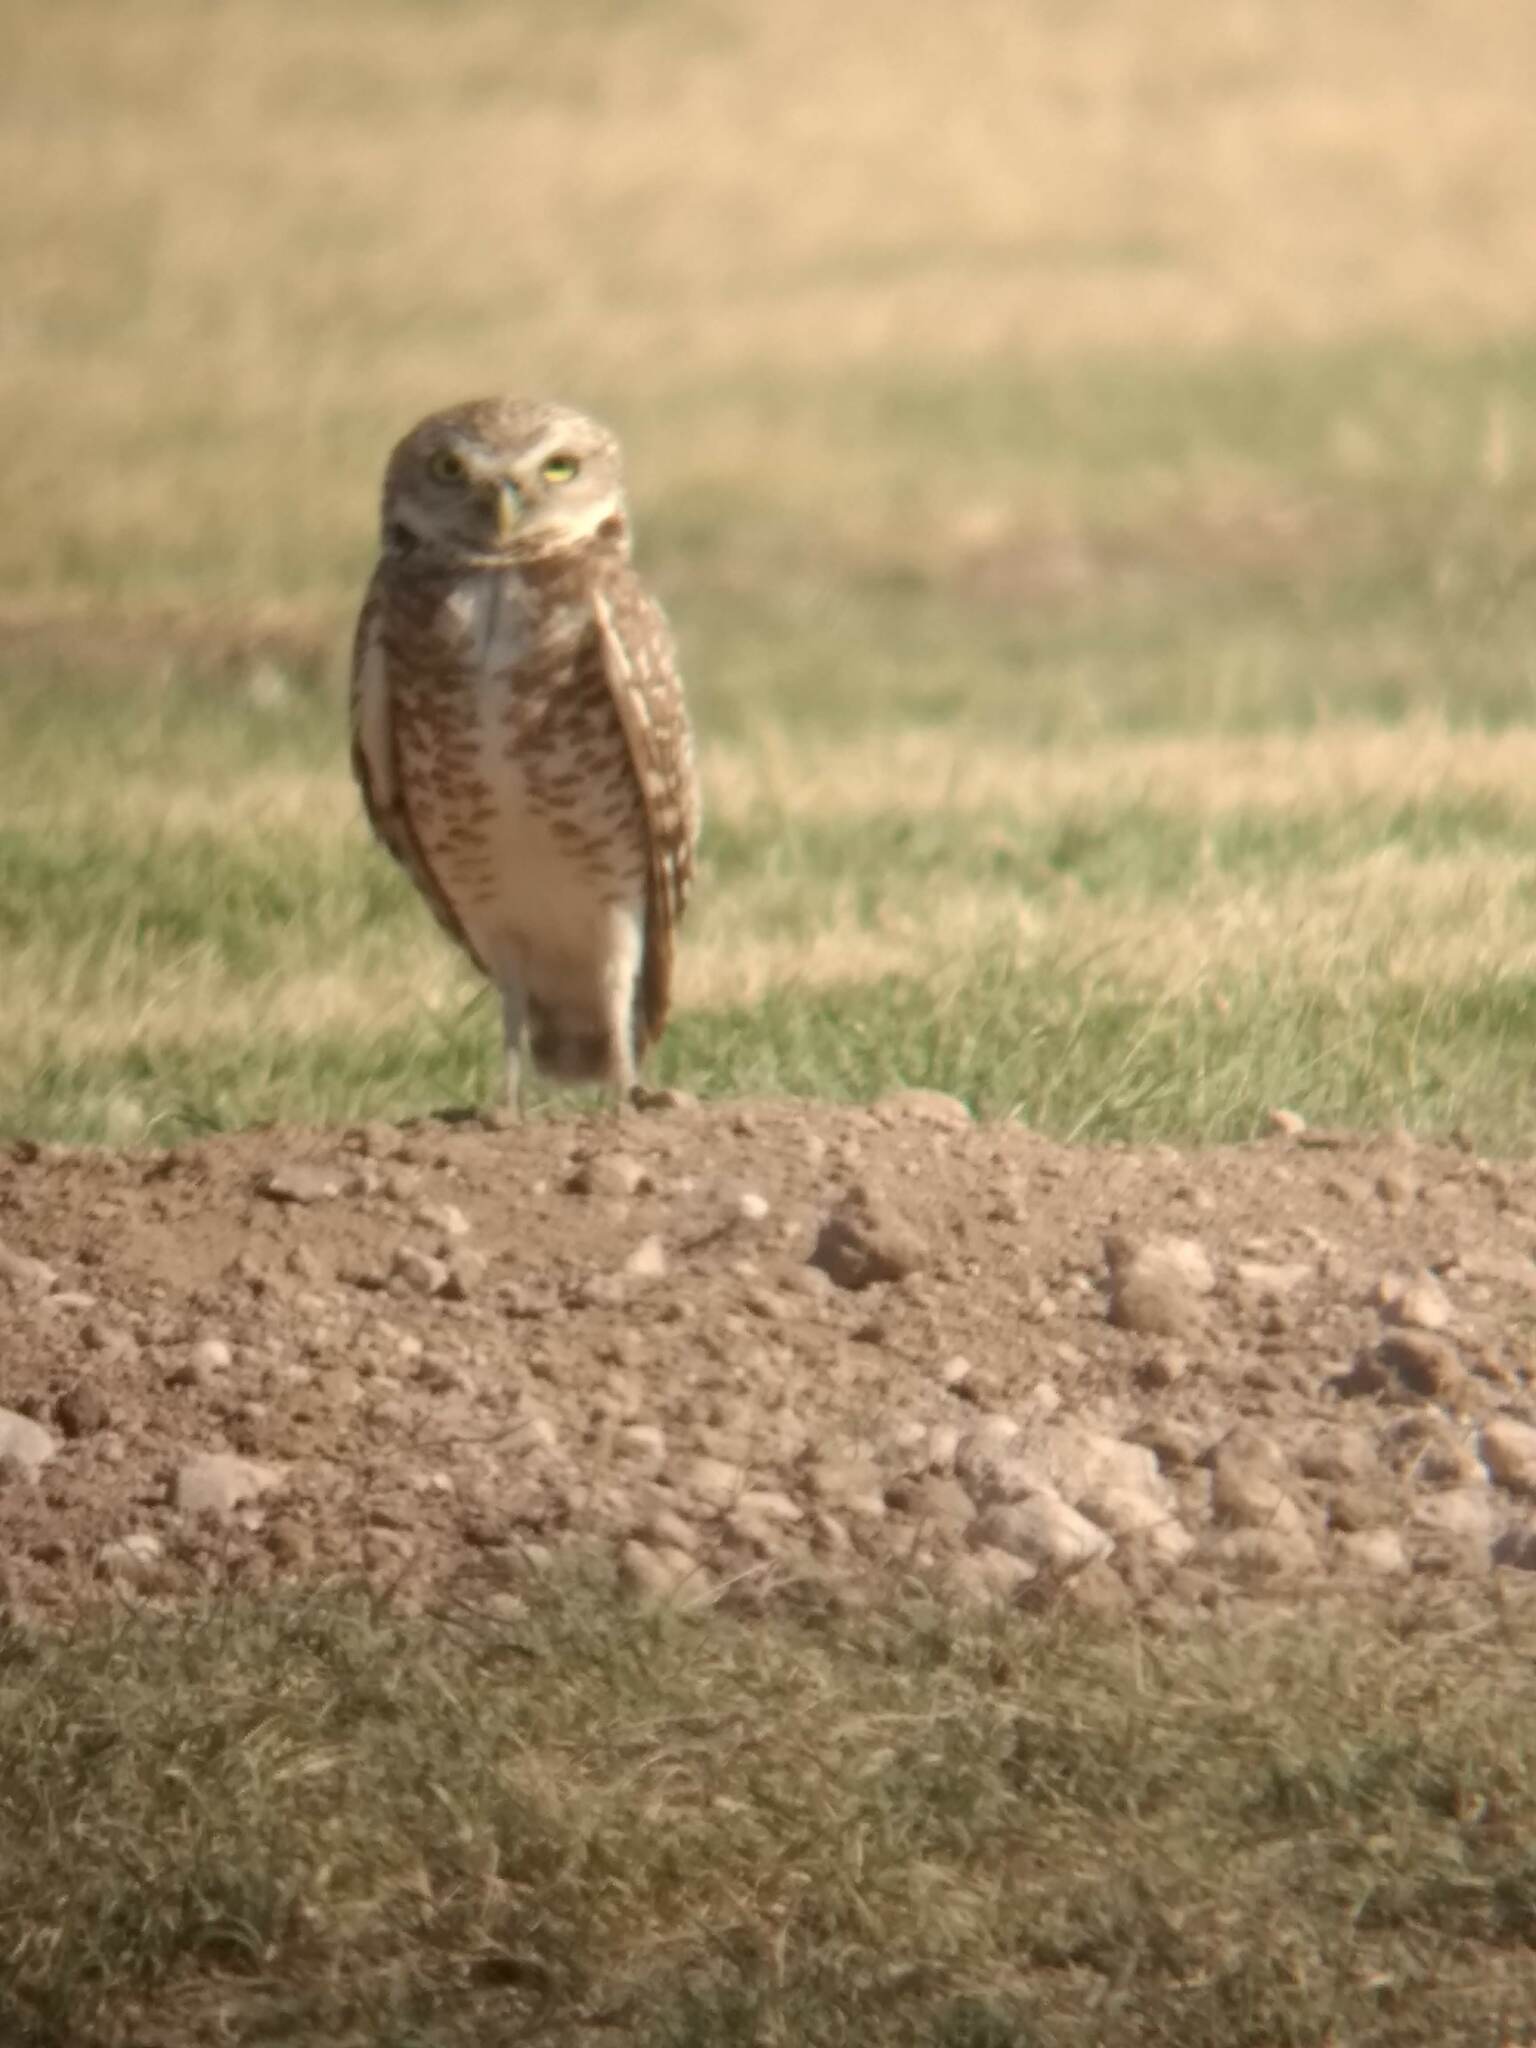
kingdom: Animalia
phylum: Chordata
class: Aves
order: Strigiformes
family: Strigidae
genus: Athene
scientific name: Athene cunicularia
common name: Burrowing owl
